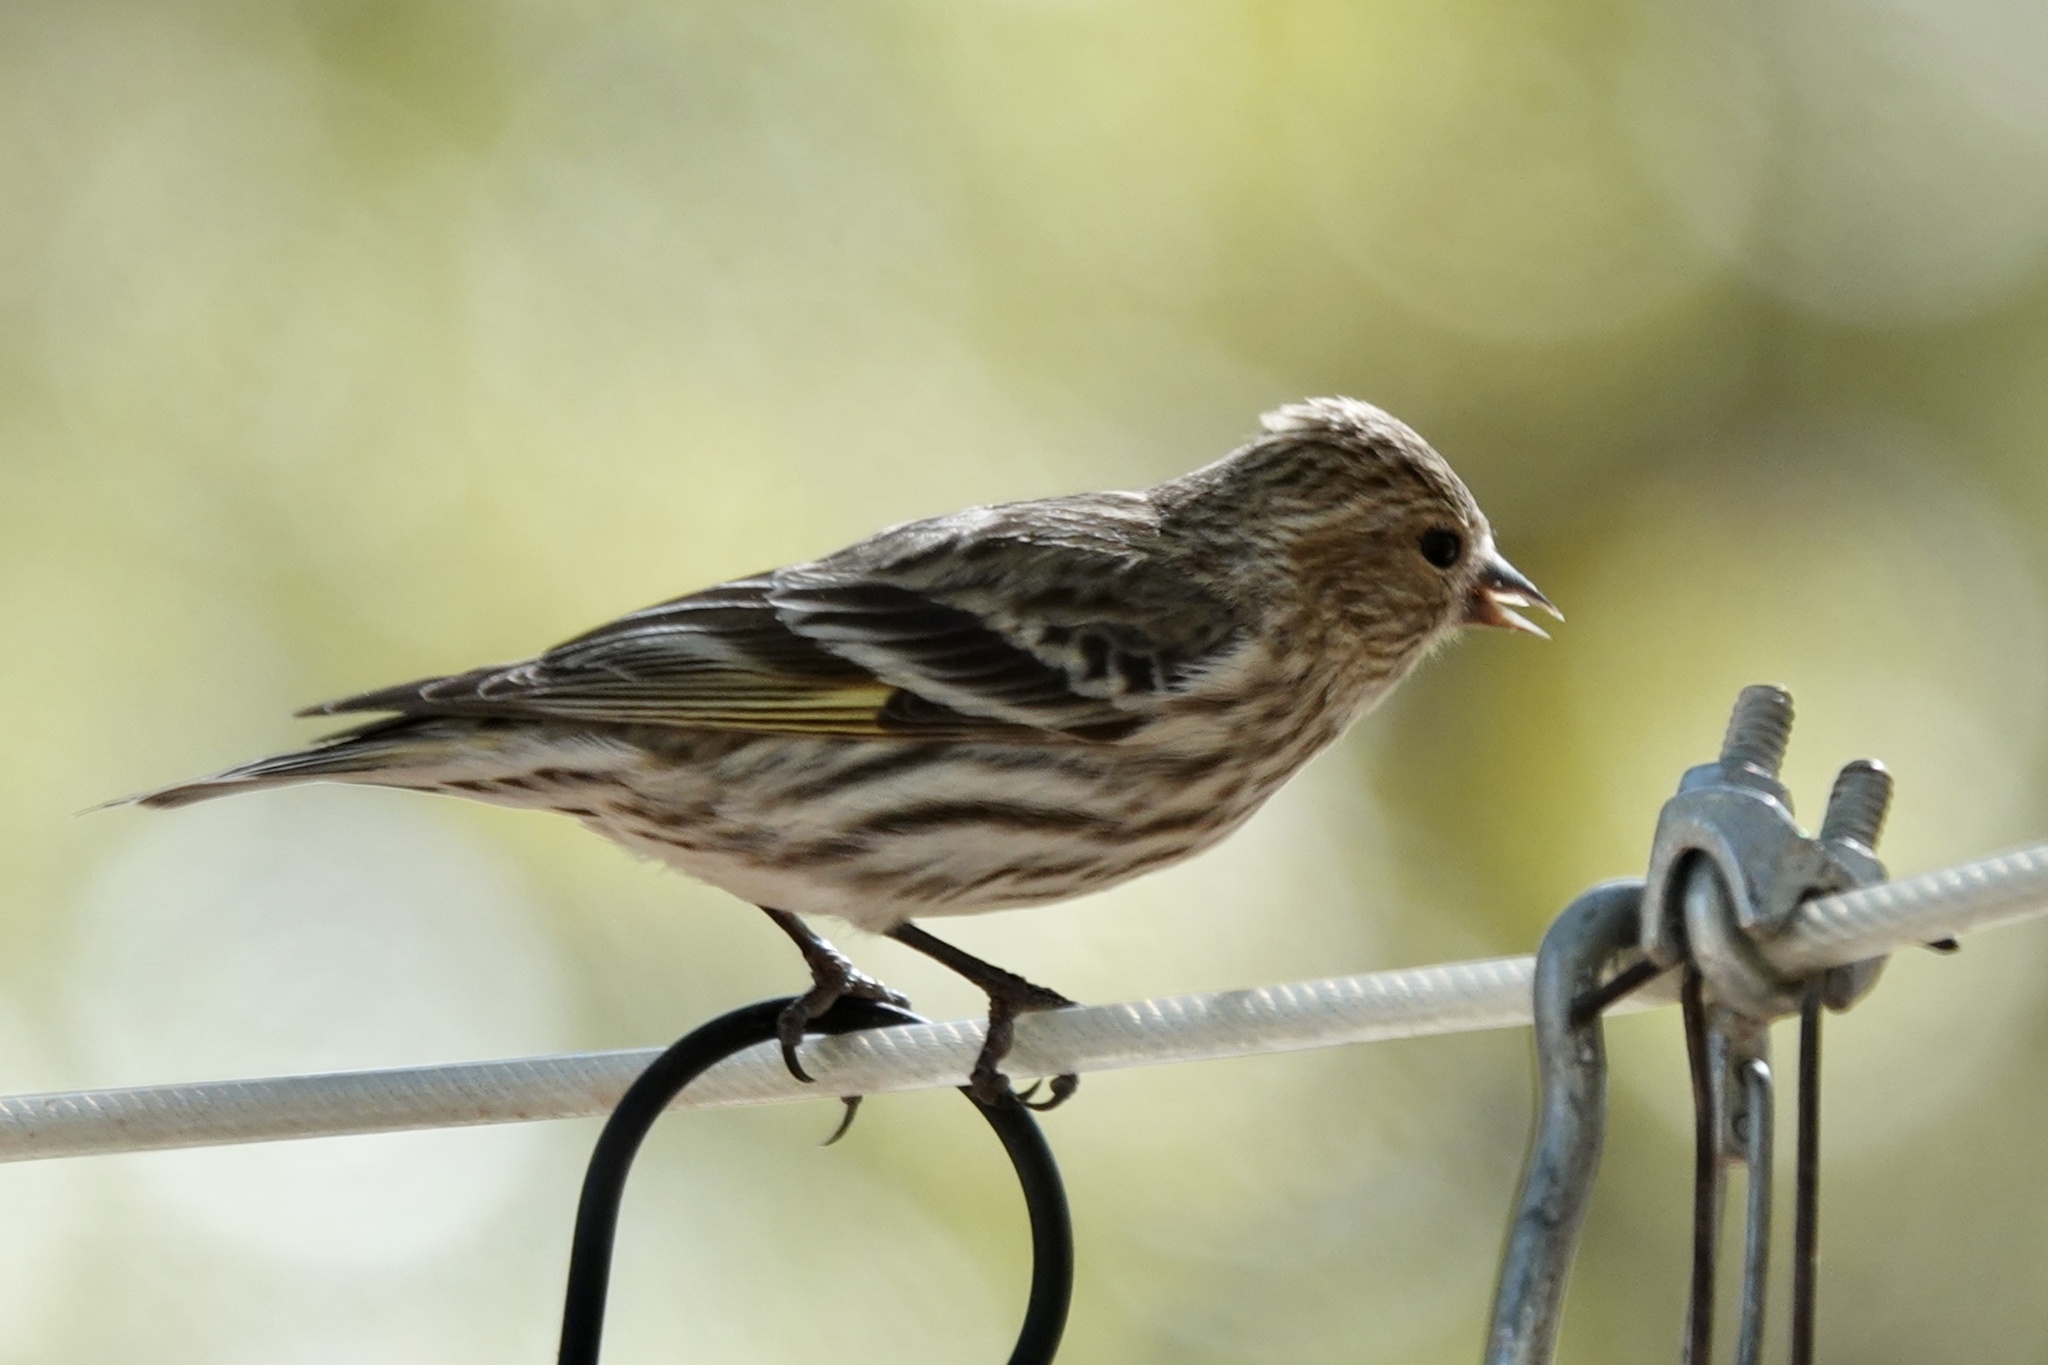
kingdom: Animalia
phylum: Chordata
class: Aves
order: Passeriformes
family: Fringillidae
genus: Spinus
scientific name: Spinus pinus
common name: Pine siskin
